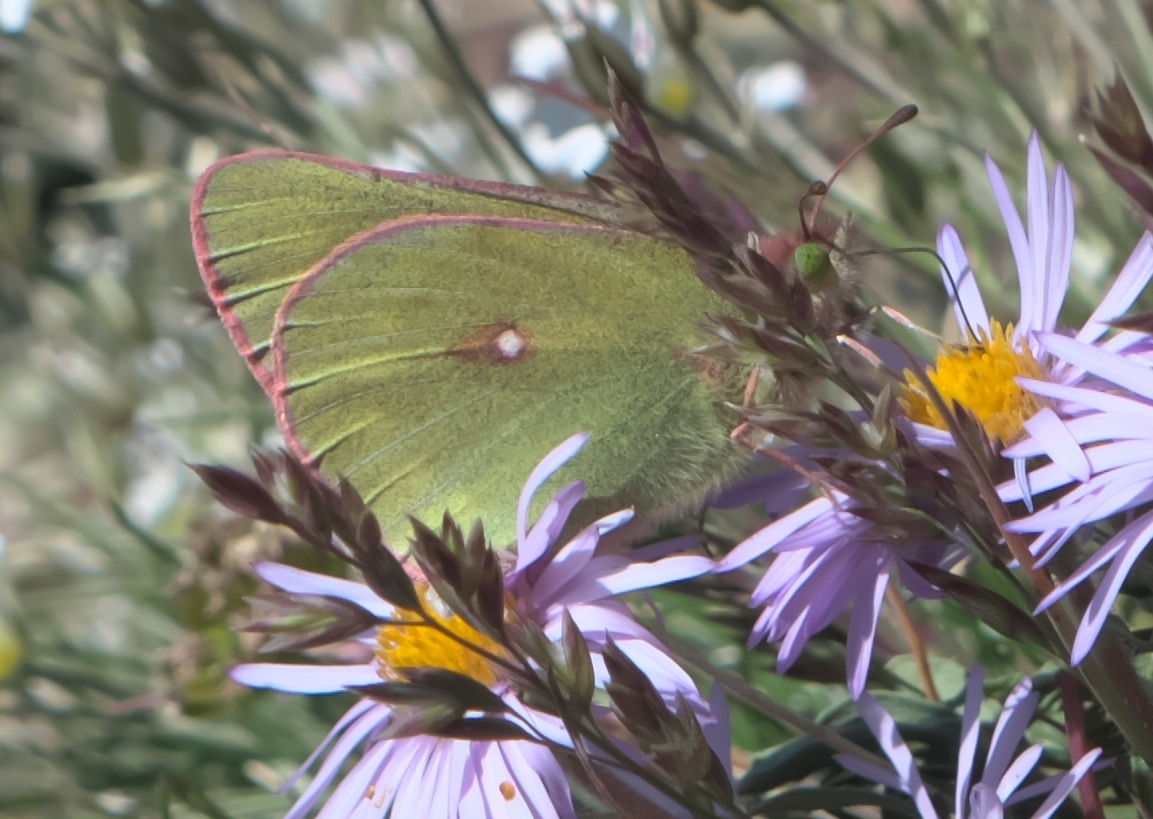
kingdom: Animalia
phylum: Arthropoda
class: Insecta
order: Lepidoptera
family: Pieridae
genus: Colias
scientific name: Colias meadii
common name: Mead's sulphur
